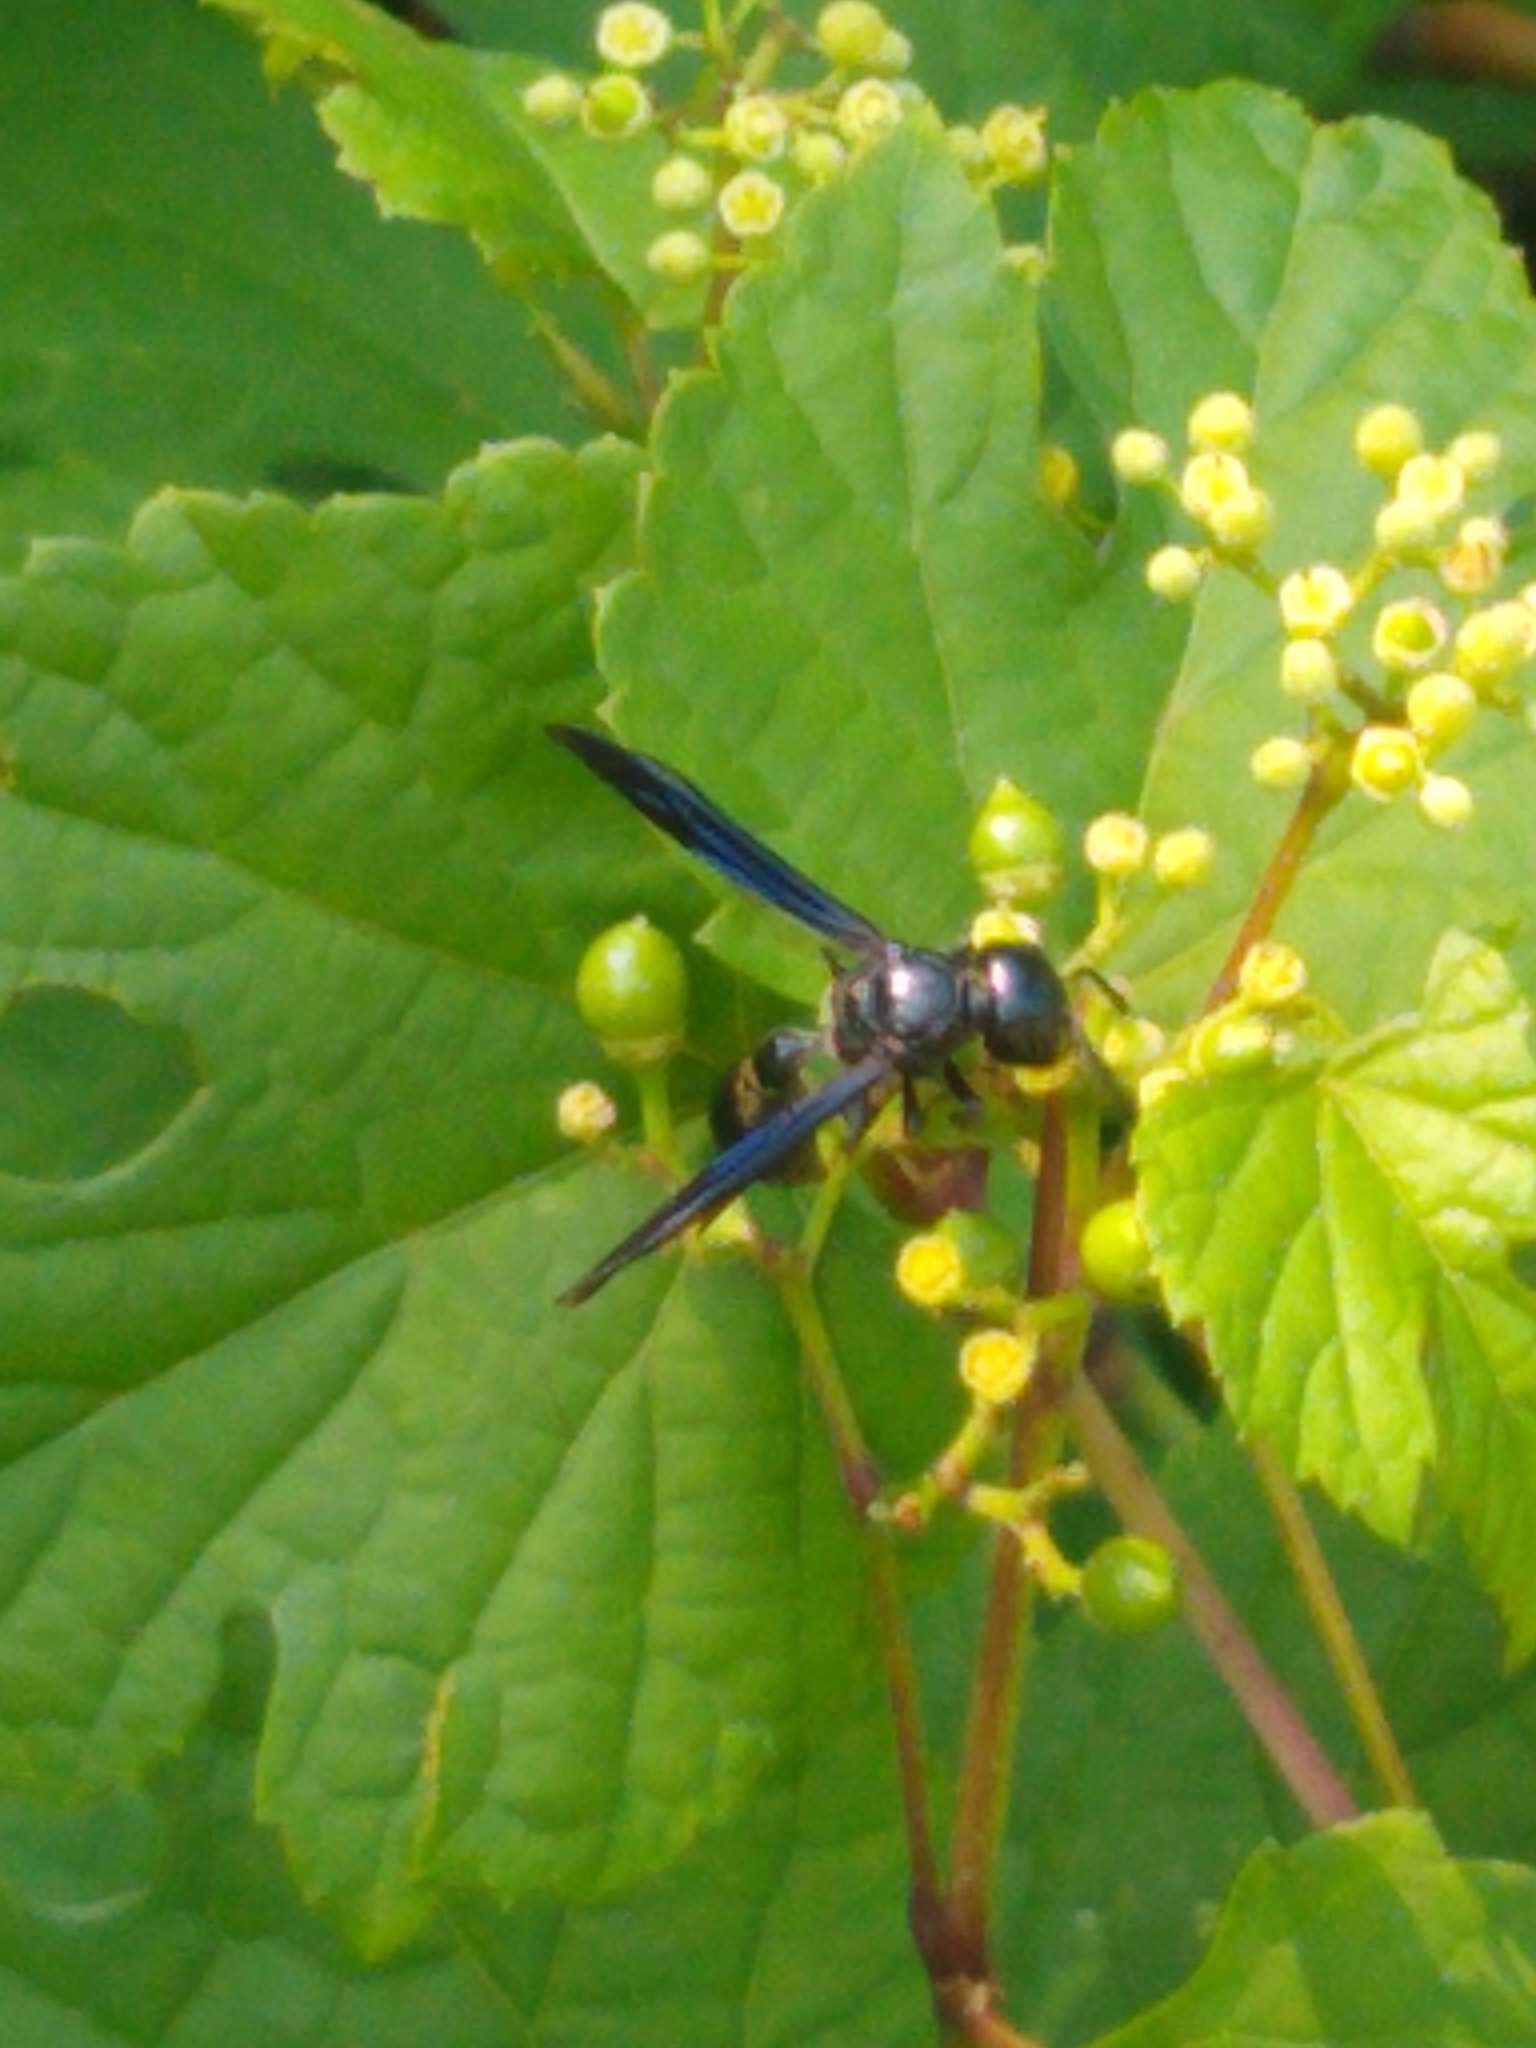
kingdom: Animalia
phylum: Arthropoda
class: Insecta
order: Hymenoptera
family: Eumenidae
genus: Zethus
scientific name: Zethus spinipes
